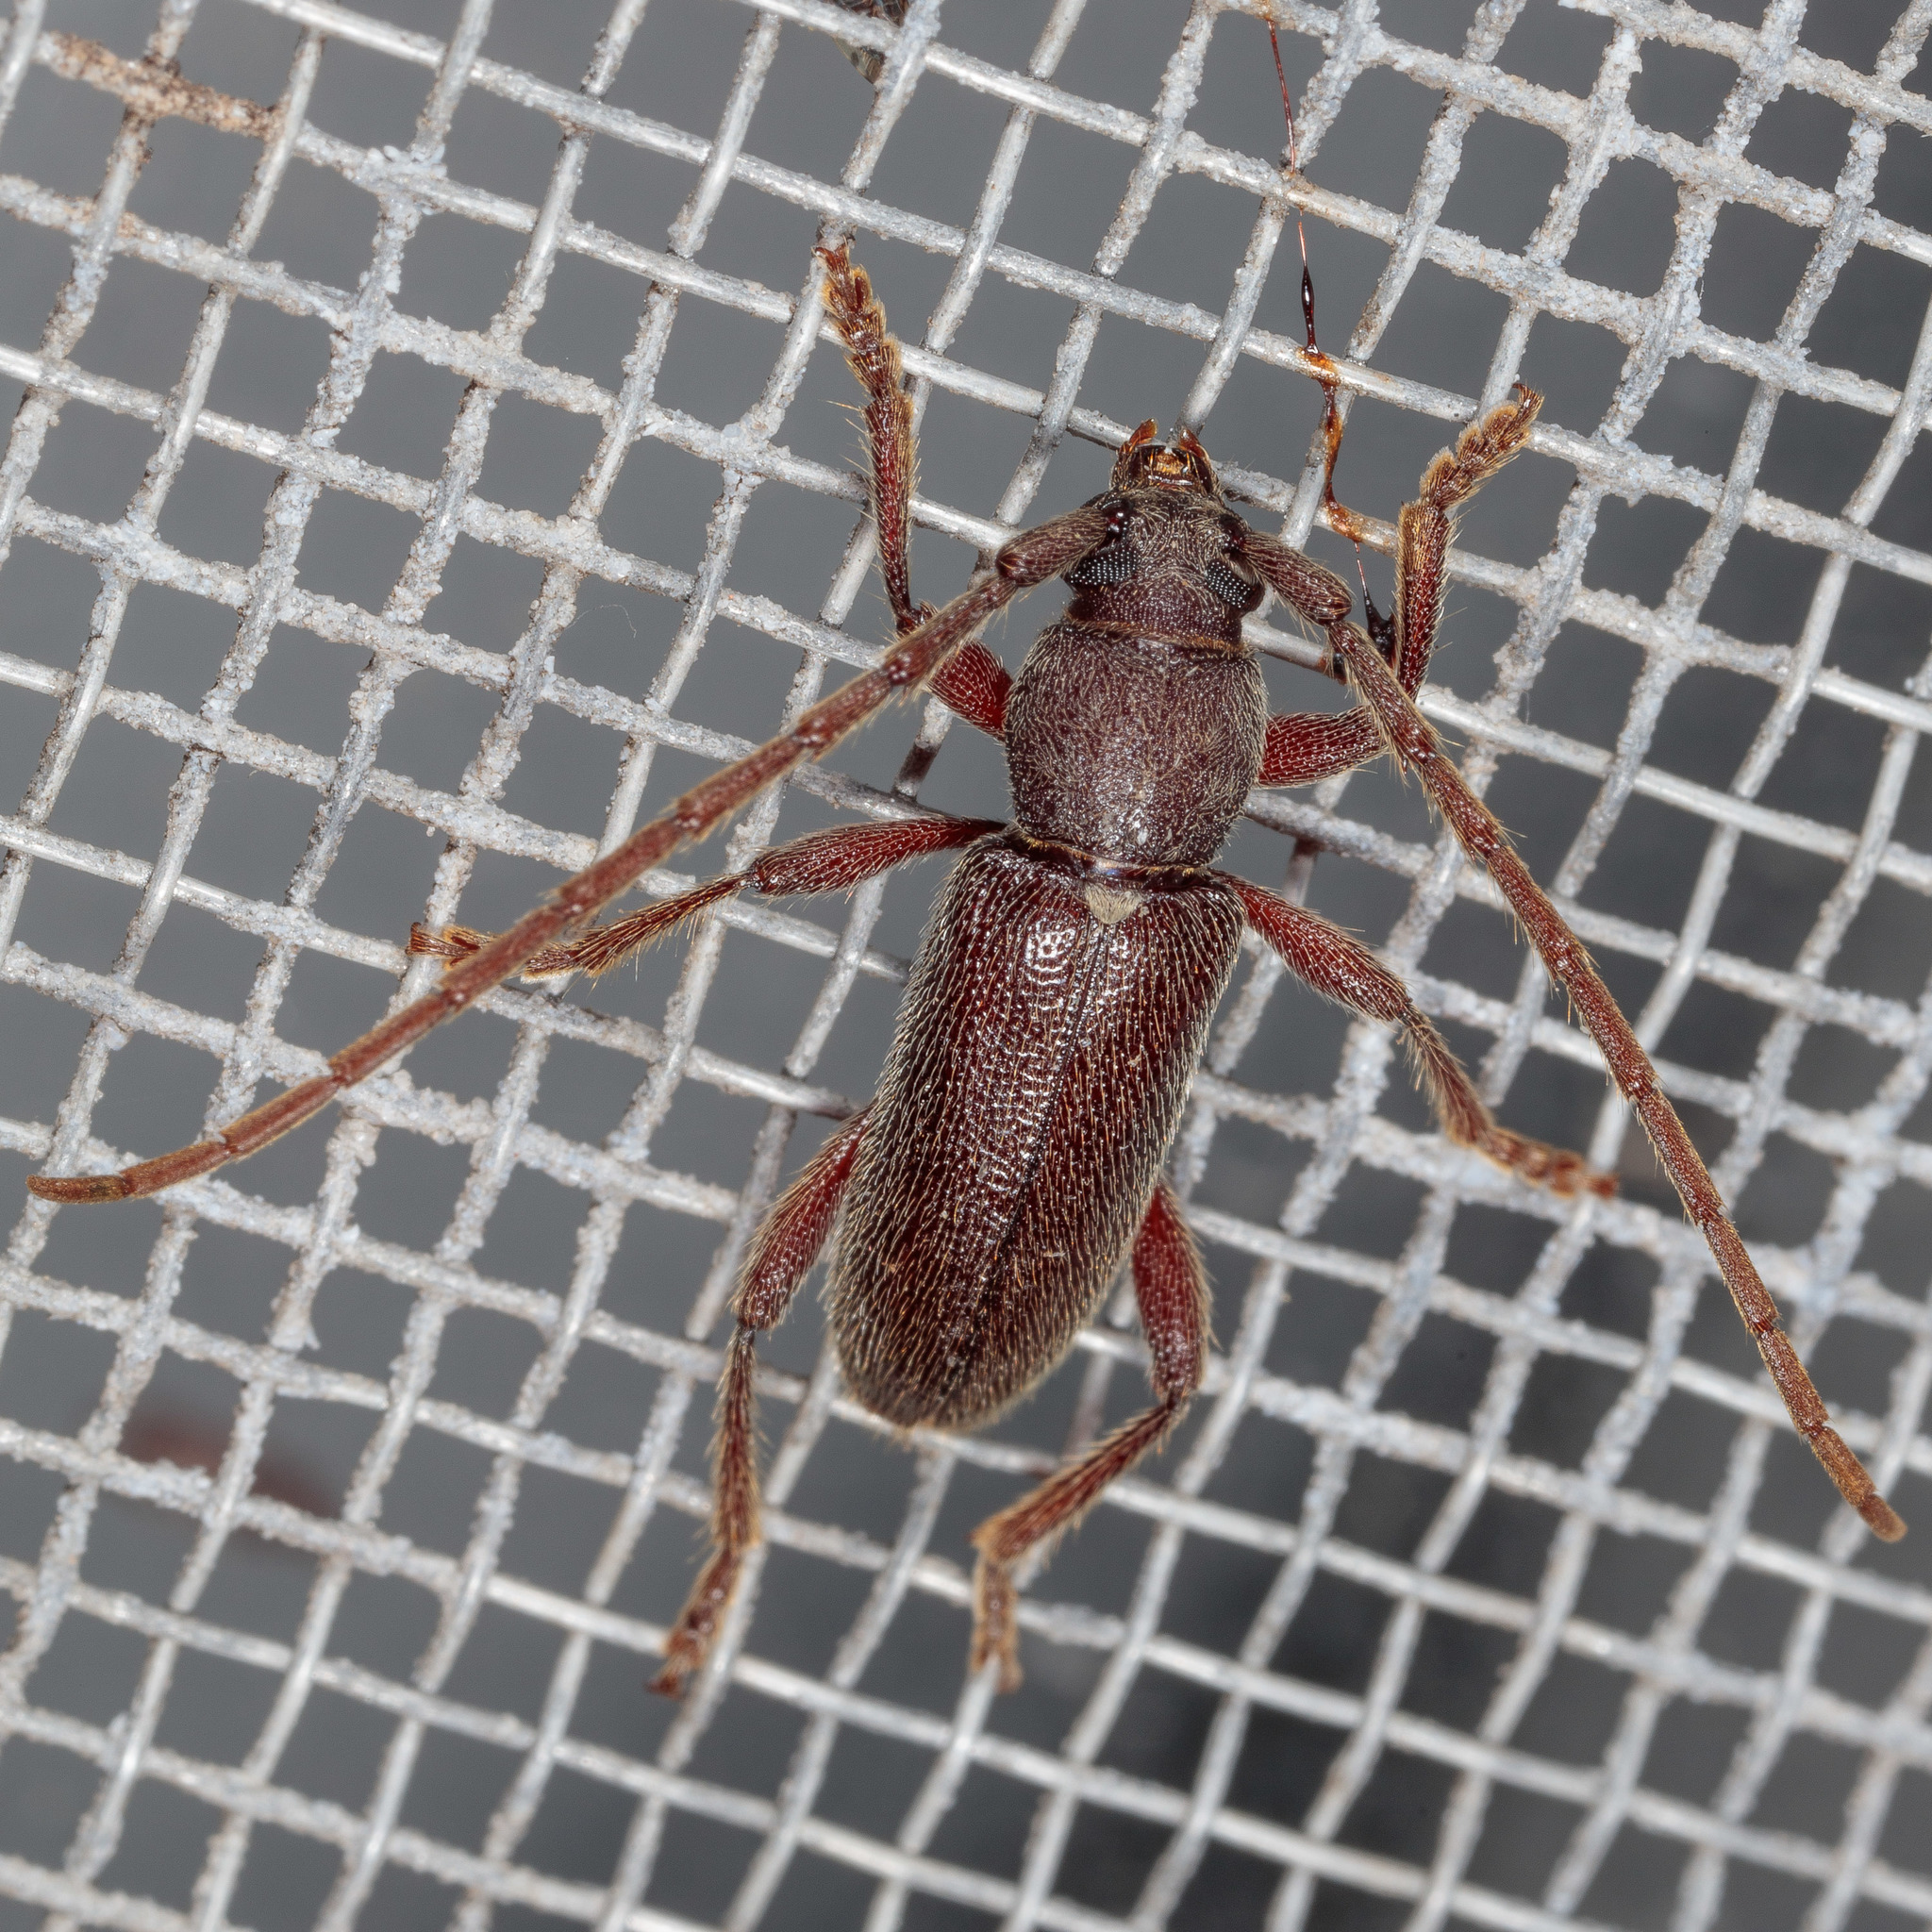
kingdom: Animalia
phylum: Arthropoda
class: Insecta
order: Coleoptera
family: Cerambycidae
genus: Anelaphus
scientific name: Anelaphus moestus
